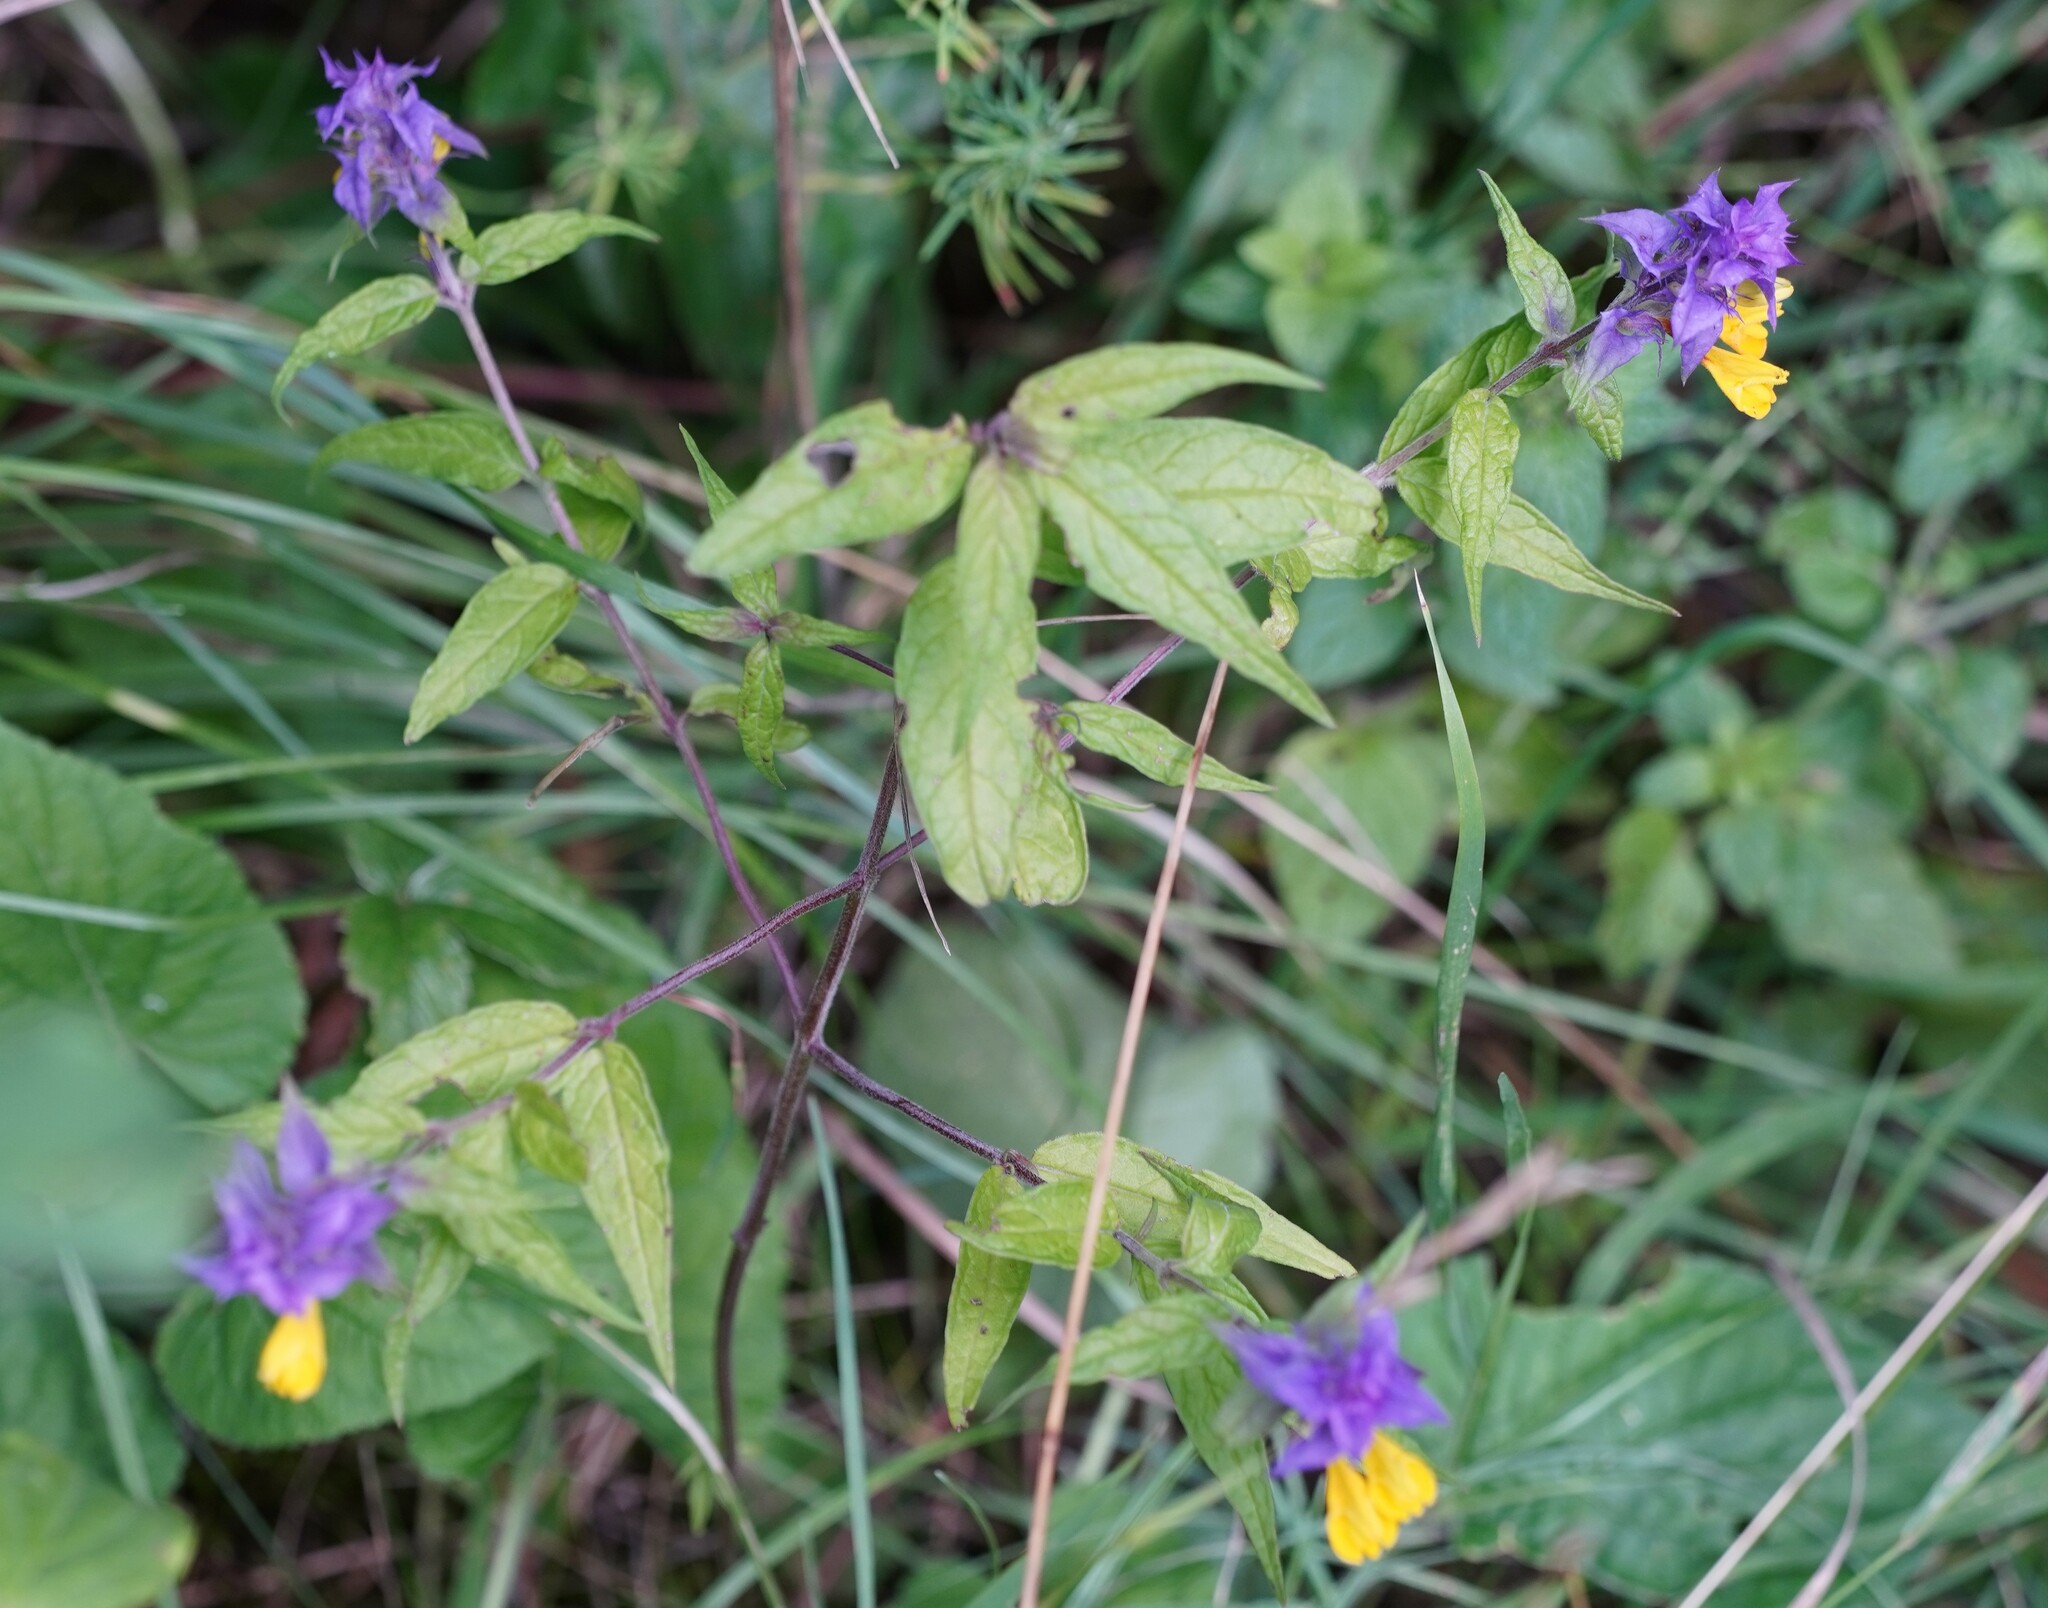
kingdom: Plantae
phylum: Tracheophyta
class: Magnoliopsida
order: Lamiales
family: Orobanchaceae
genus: Melampyrum
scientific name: Melampyrum nemorosum
